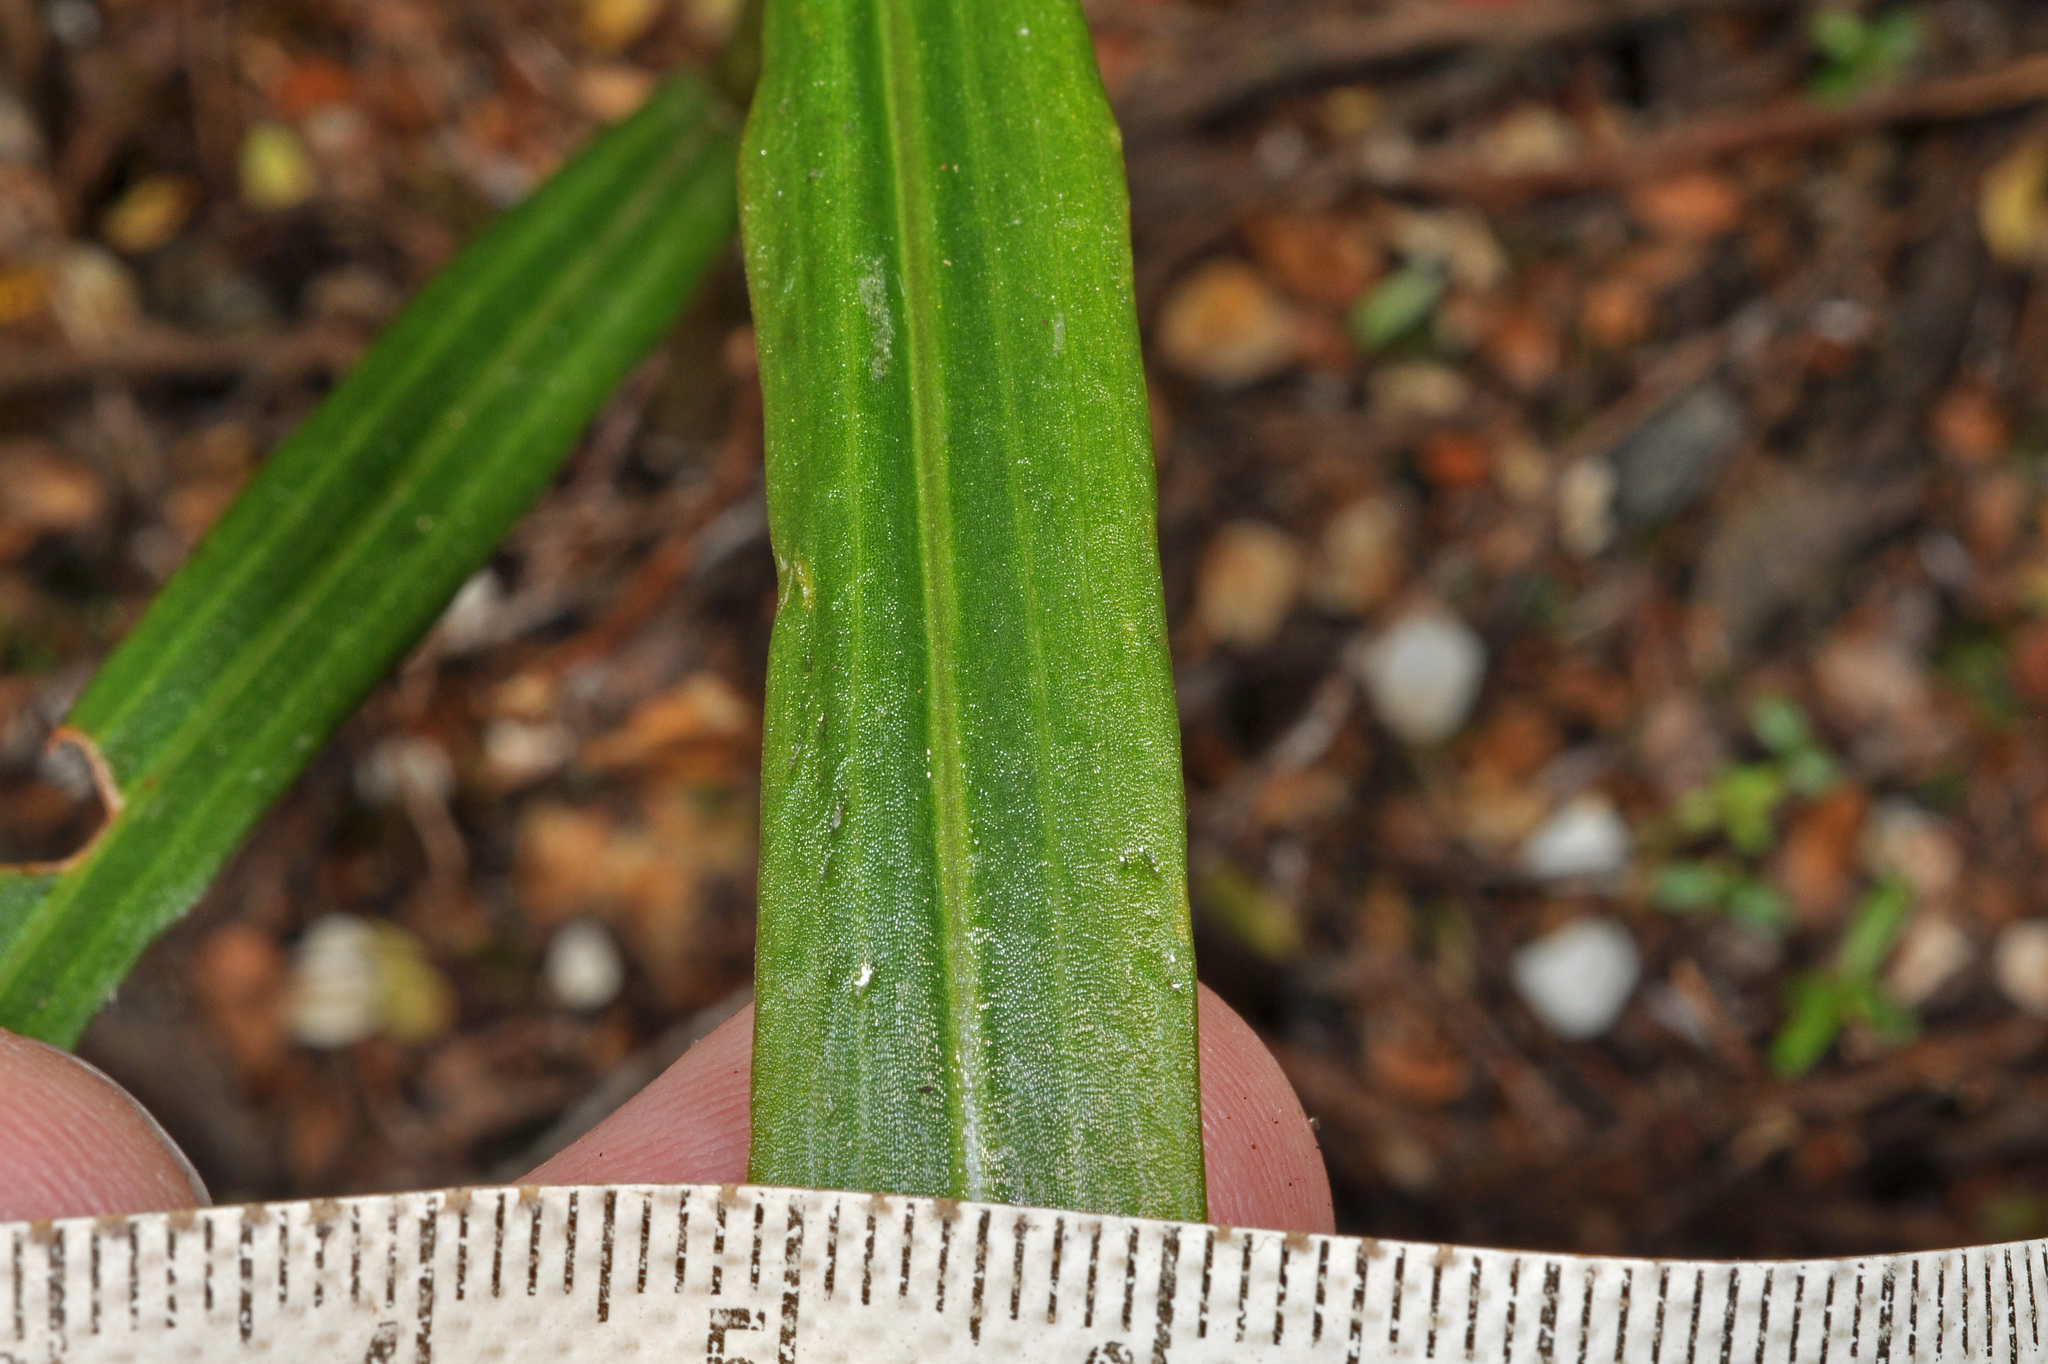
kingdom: Plantae
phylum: Tracheophyta
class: Liliopsida
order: Asparagales
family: Orchidaceae
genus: Pterostylis
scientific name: Pterostylis banksii
